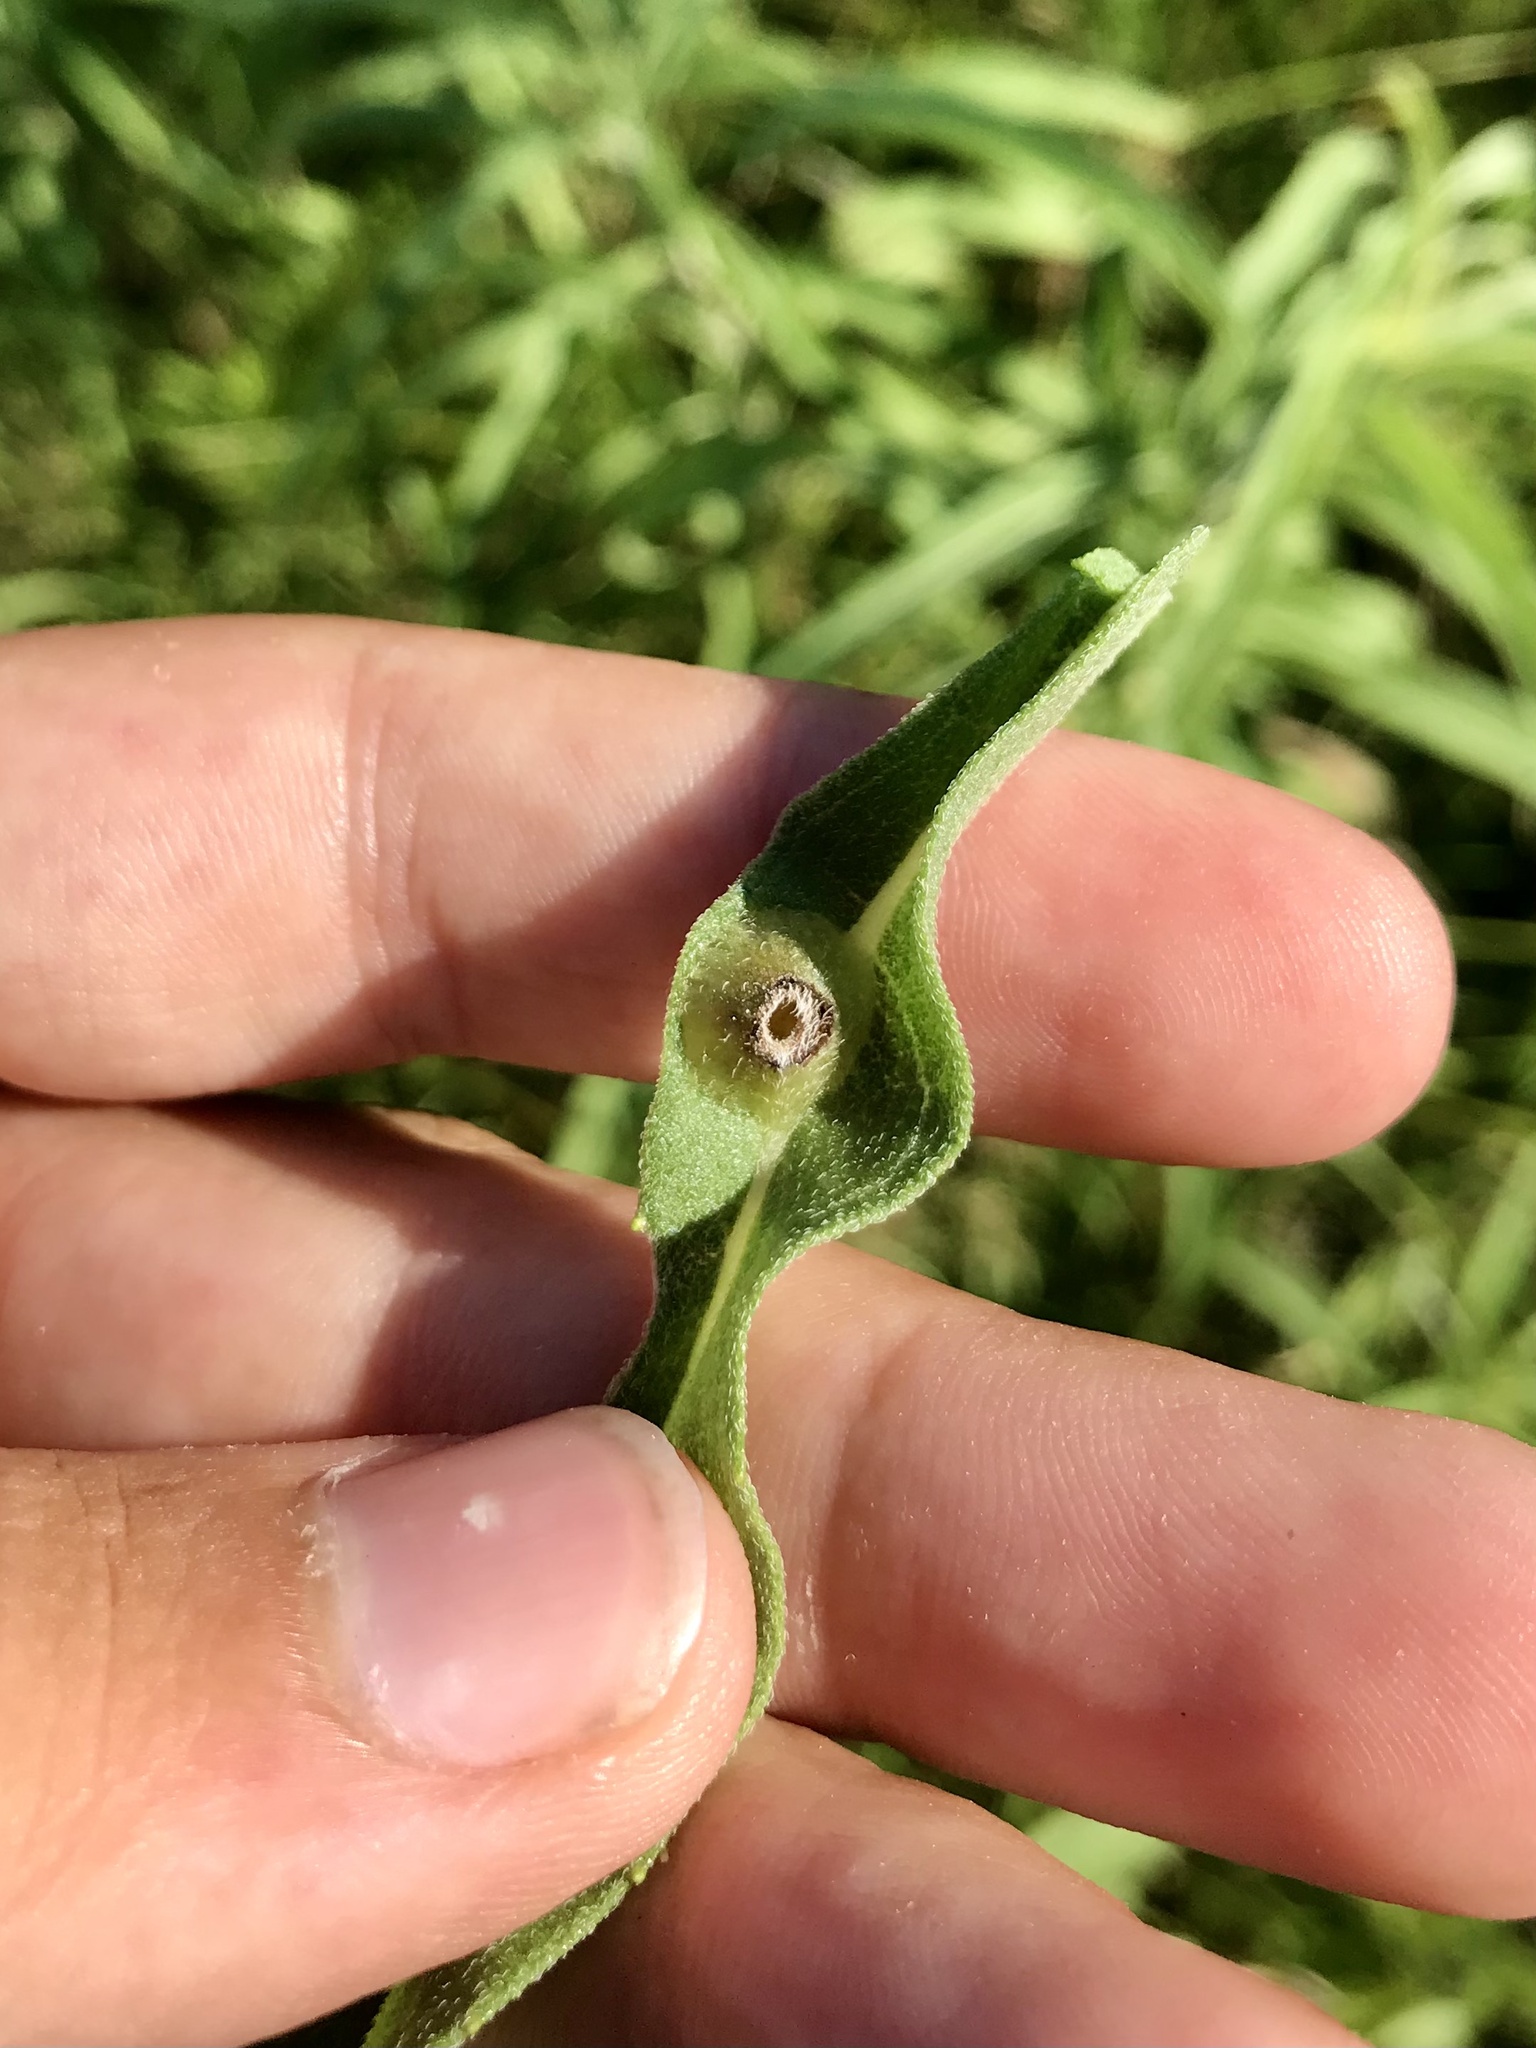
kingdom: Animalia
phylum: Arthropoda
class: Insecta
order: Diptera
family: Cecidomyiidae
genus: Pilodiplosis
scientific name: Pilodiplosis helianthibulla
